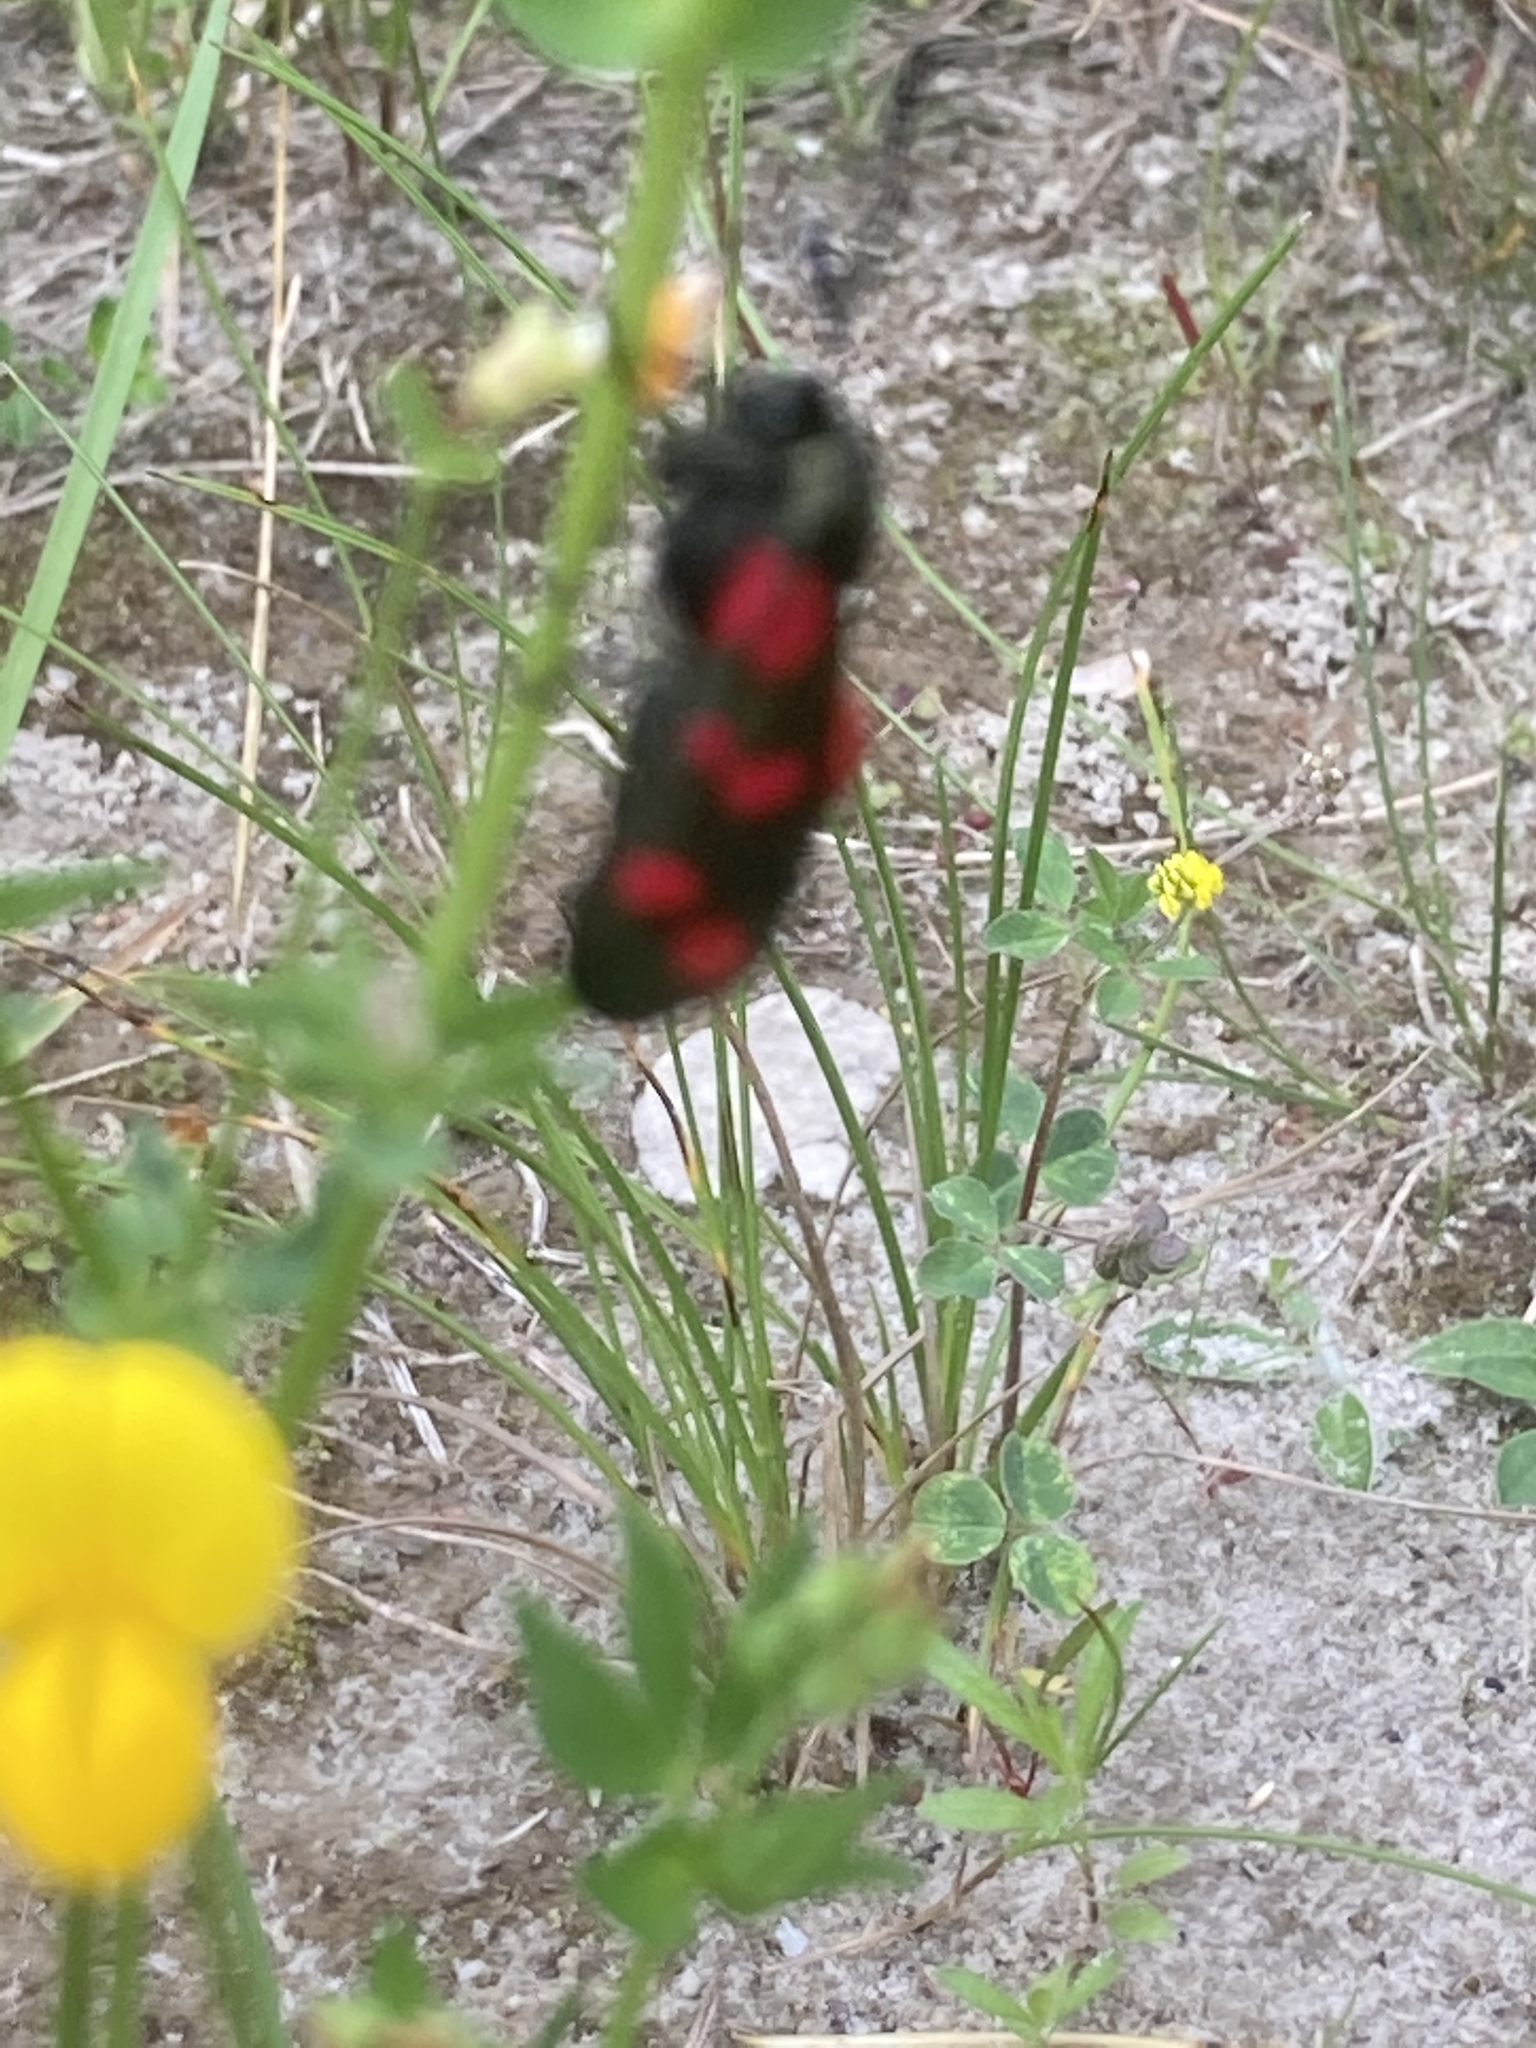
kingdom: Animalia
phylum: Arthropoda
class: Insecta
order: Lepidoptera
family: Zygaenidae
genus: Zygaena
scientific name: Zygaena filipendulae
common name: Six-spot burnet
